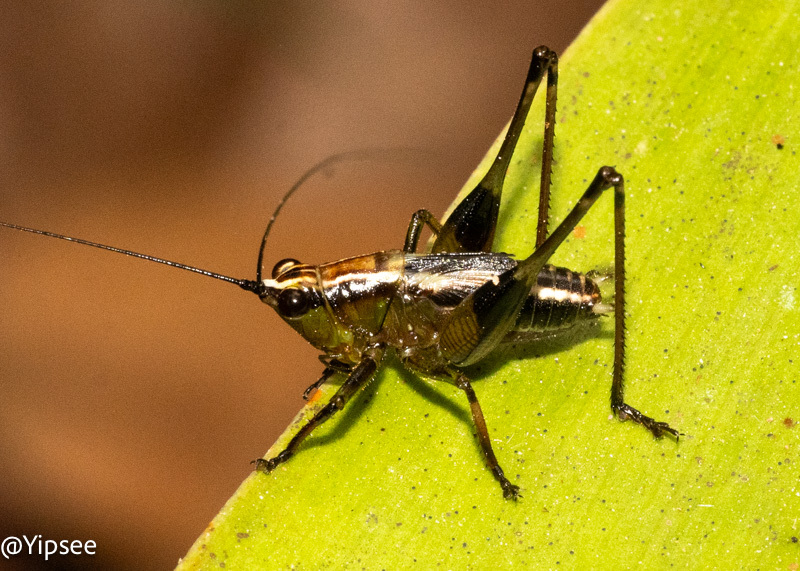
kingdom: Animalia
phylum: Arthropoda
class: Insecta
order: Orthoptera
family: Tettigoniidae
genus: Conocephalus
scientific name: Conocephalus melaenus
